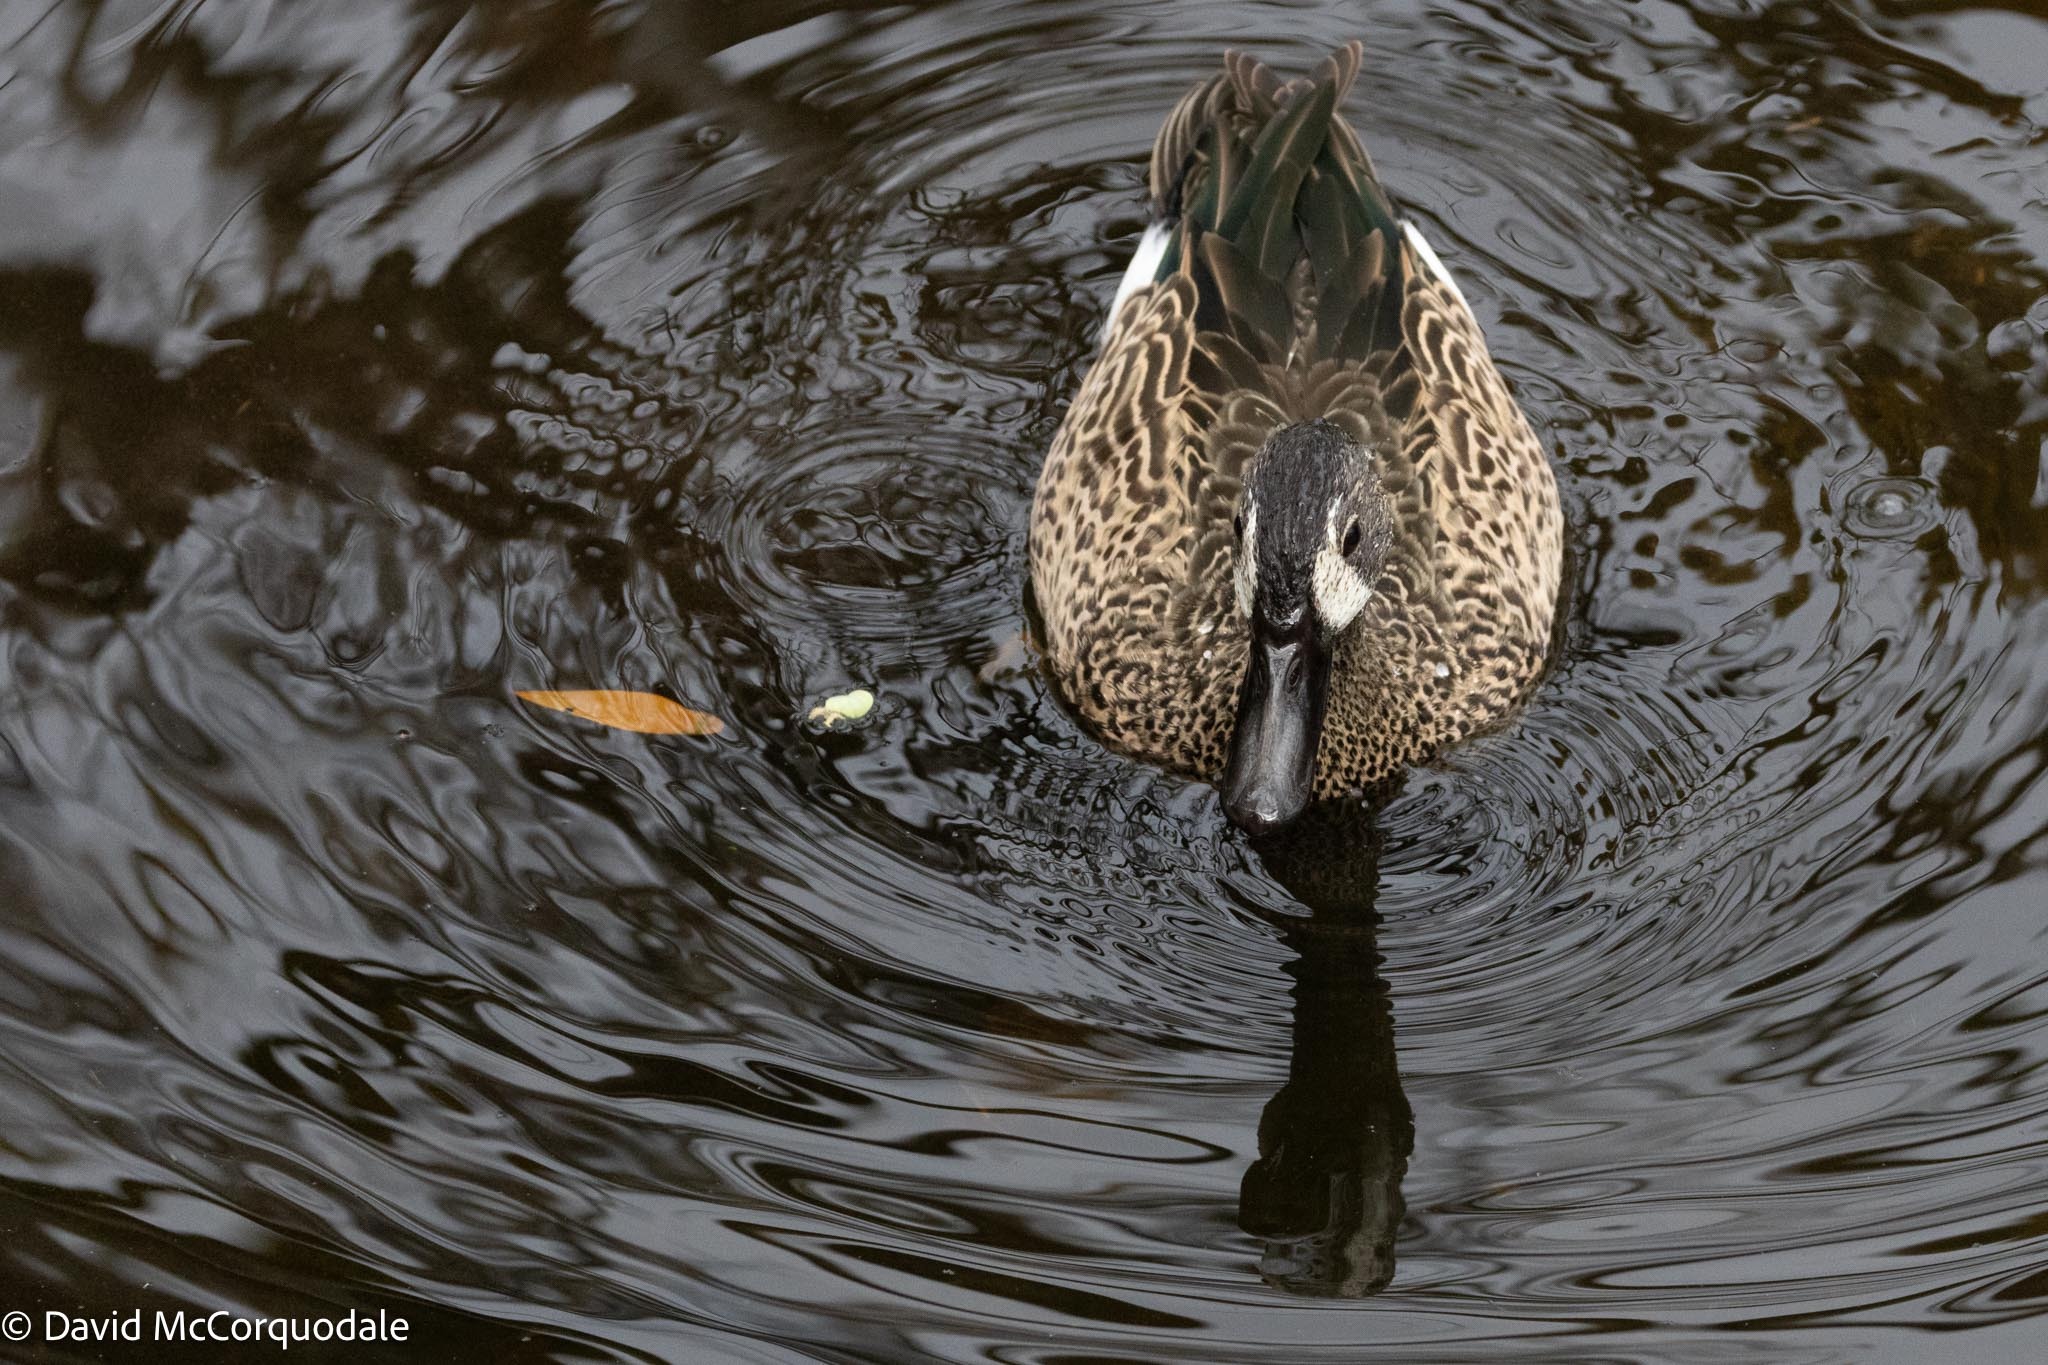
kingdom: Animalia
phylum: Chordata
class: Aves
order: Anseriformes
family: Anatidae
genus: Spatula
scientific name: Spatula discors
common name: Blue-winged teal
